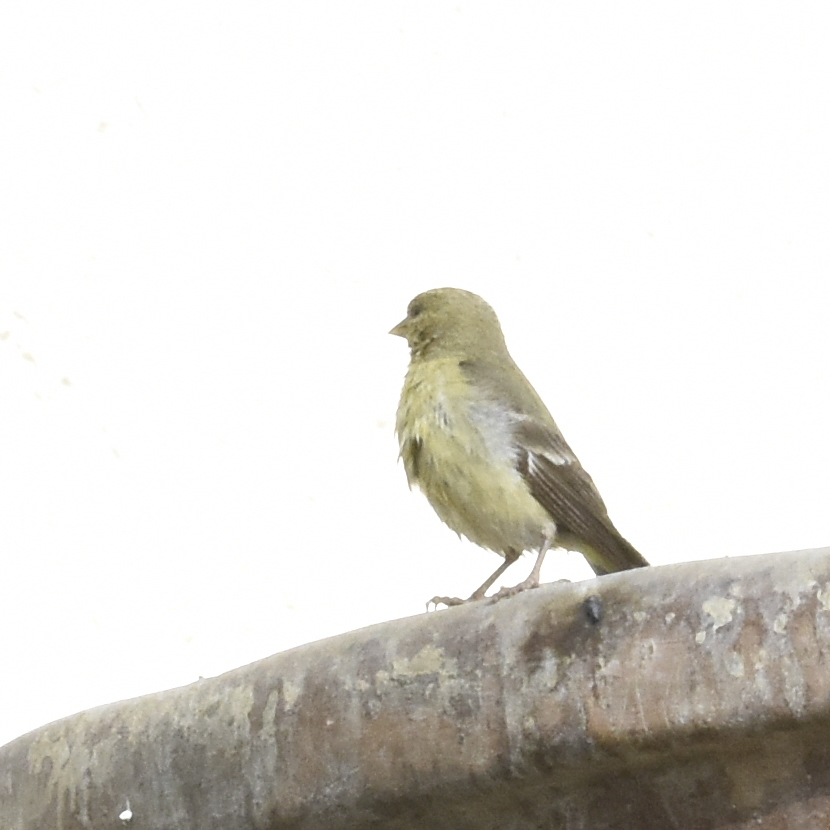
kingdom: Animalia
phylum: Chordata
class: Aves
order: Passeriformes
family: Fringillidae
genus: Spinus
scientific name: Spinus psaltria
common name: Lesser goldfinch
